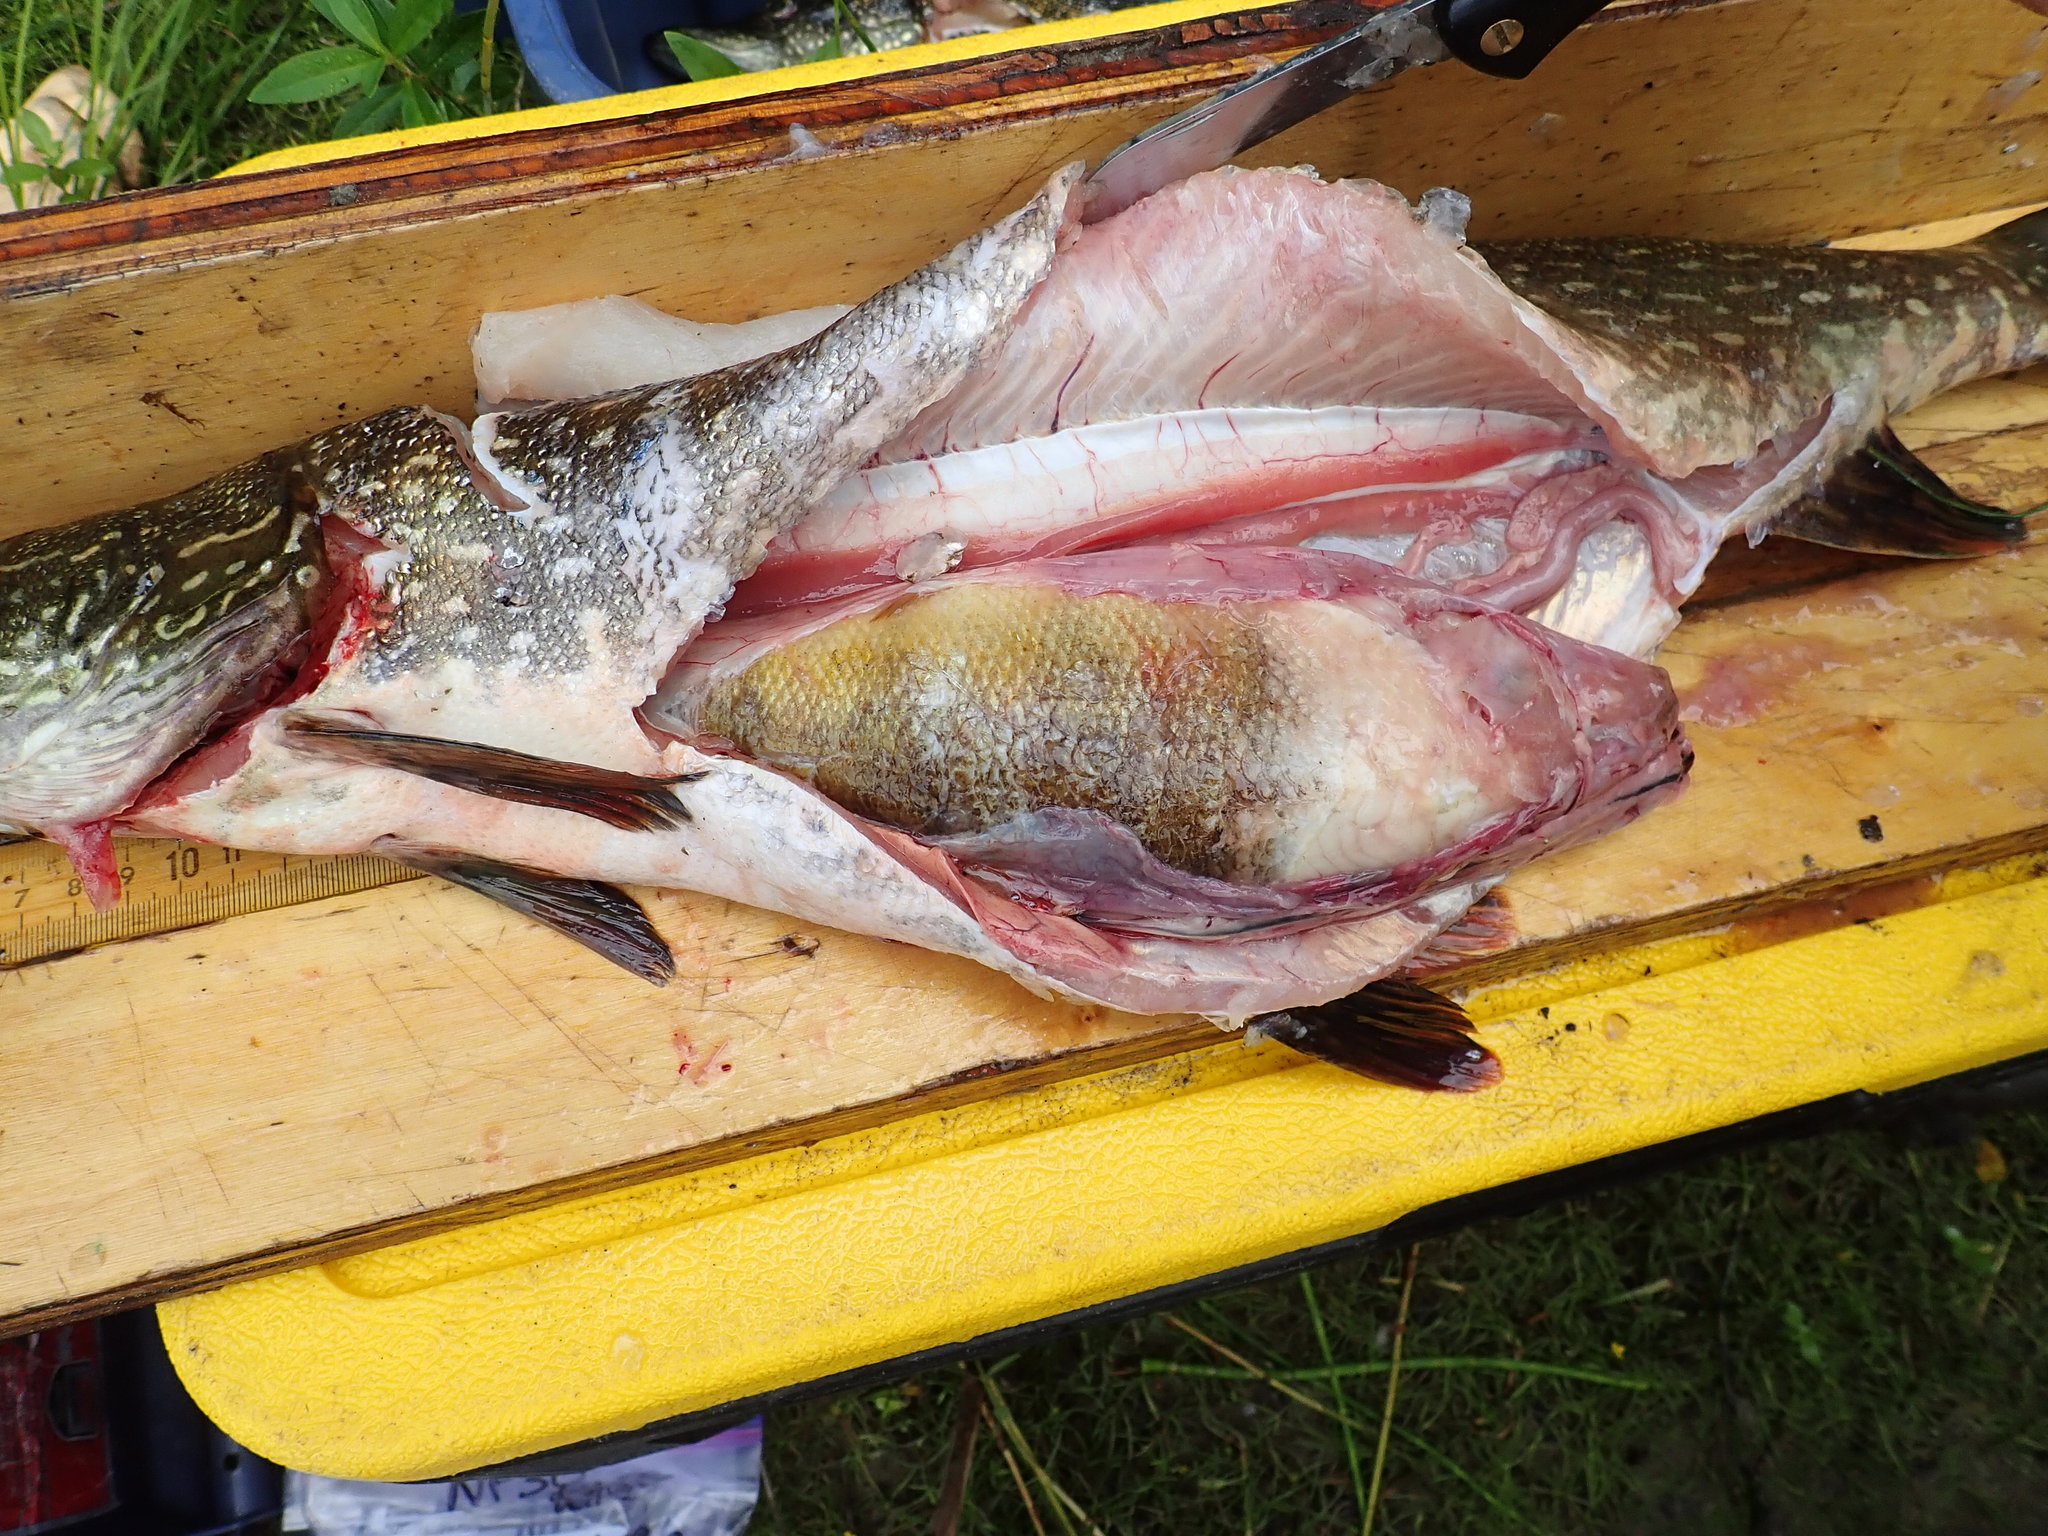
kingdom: Animalia
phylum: Chordata
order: Perciformes
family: Percidae
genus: Perca
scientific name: Perca flavescens
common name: Yellow perch
